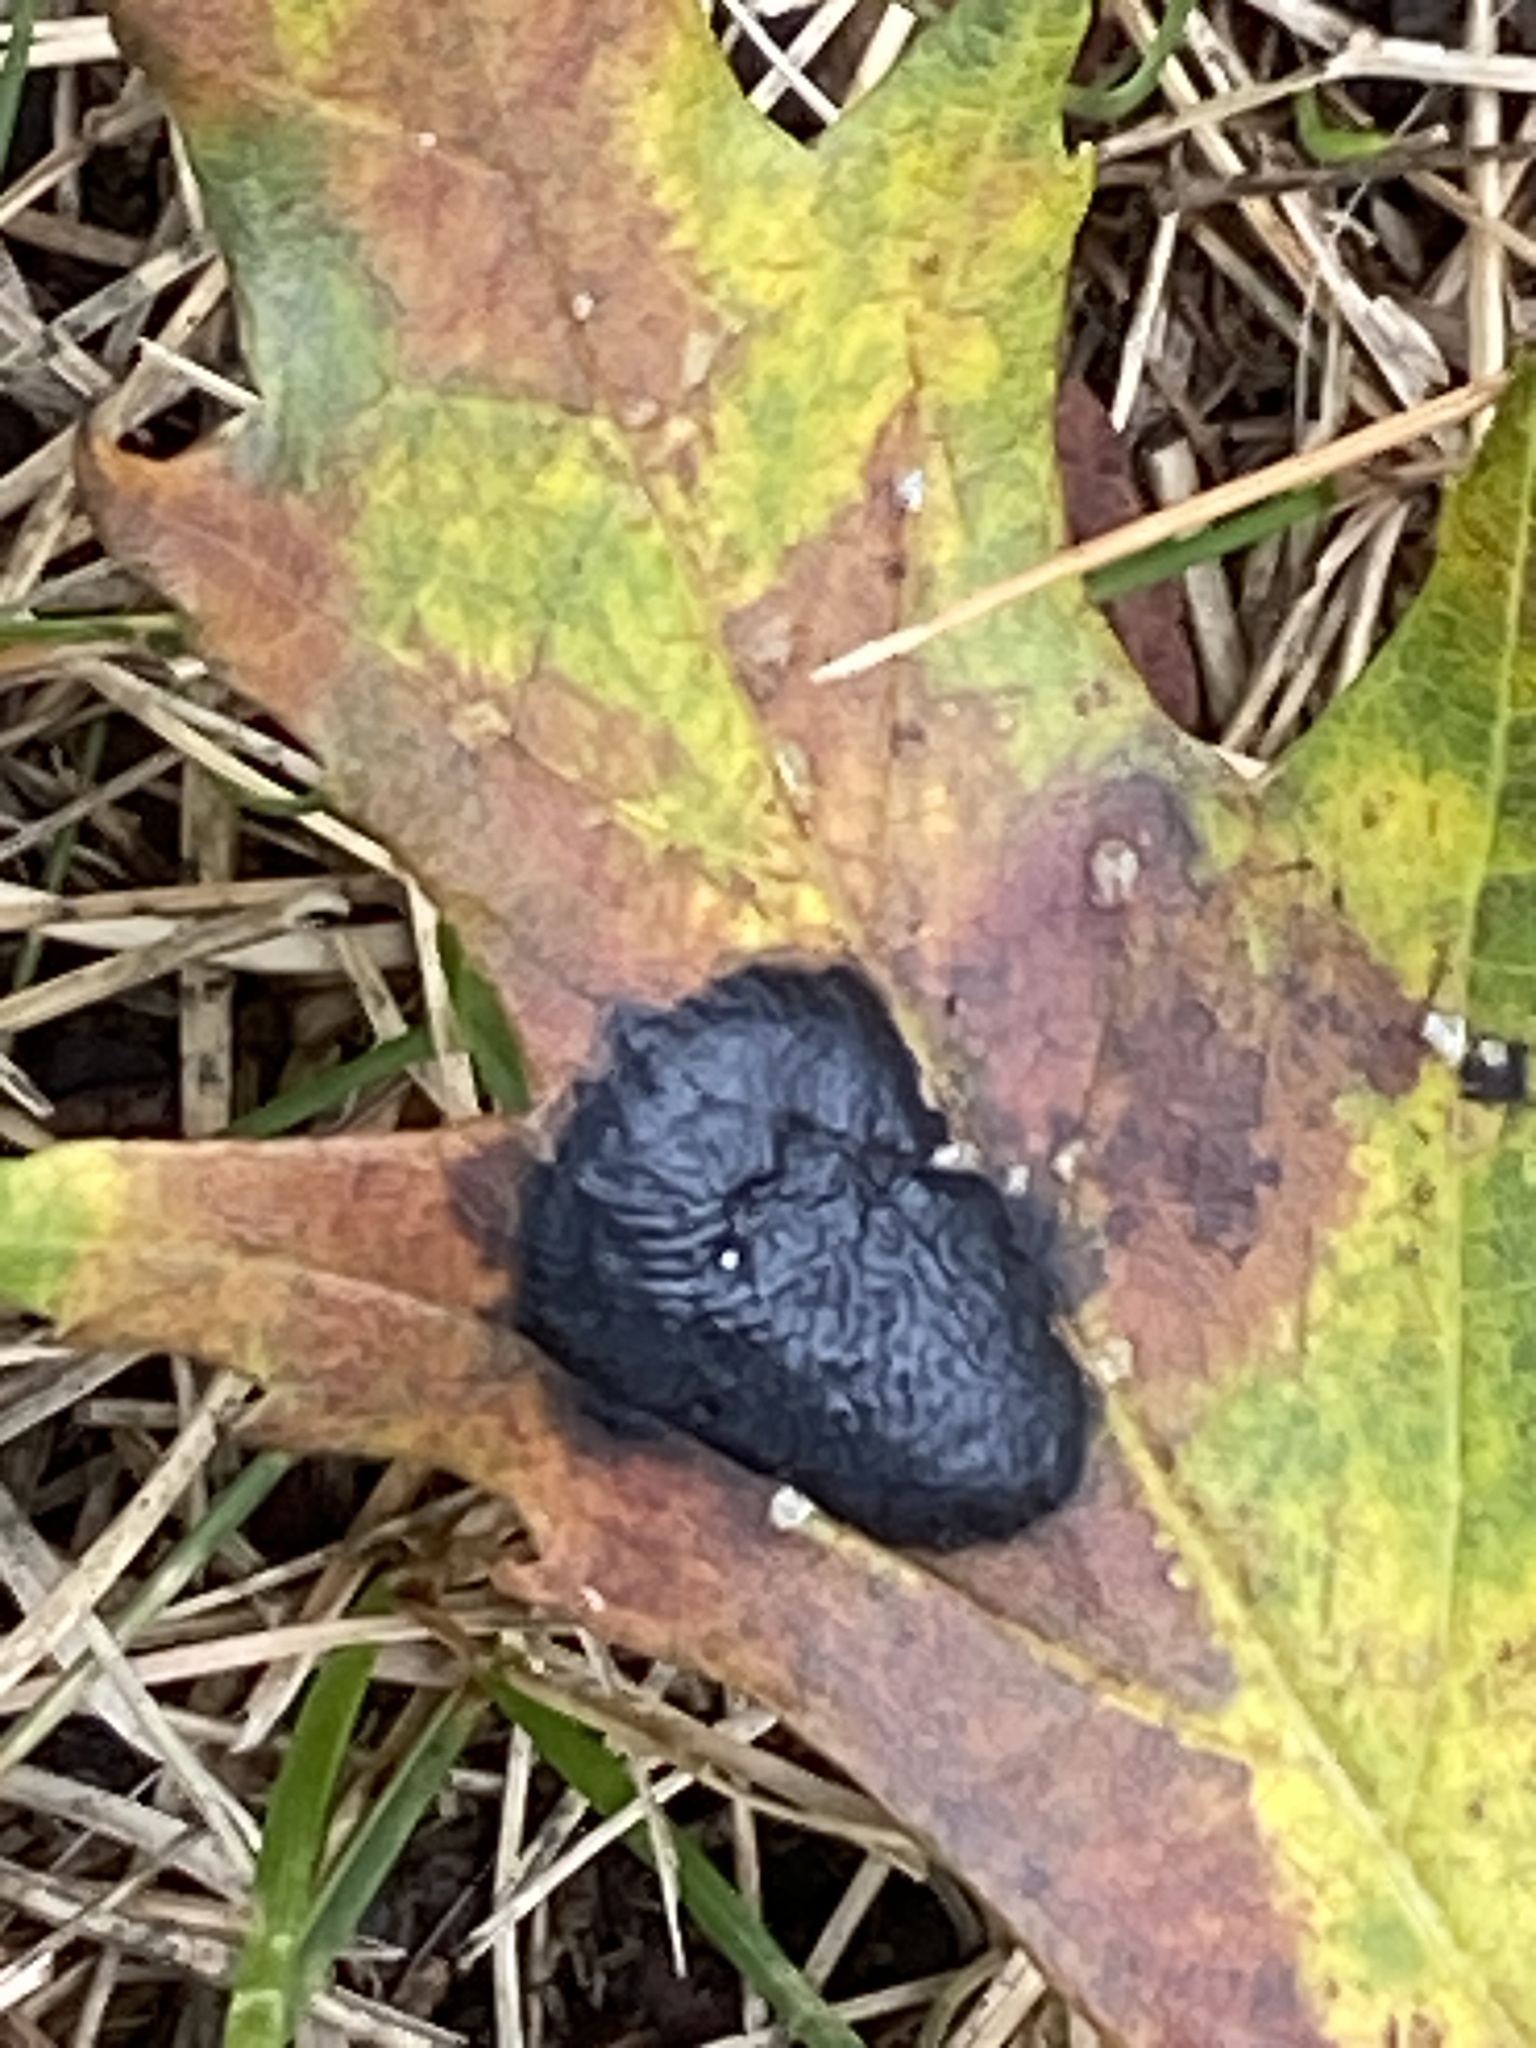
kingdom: Fungi
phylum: Ascomycota
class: Leotiomycetes
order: Rhytismatales
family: Rhytismataceae
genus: Rhytisma
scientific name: Rhytisma americanum
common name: American tar spot
